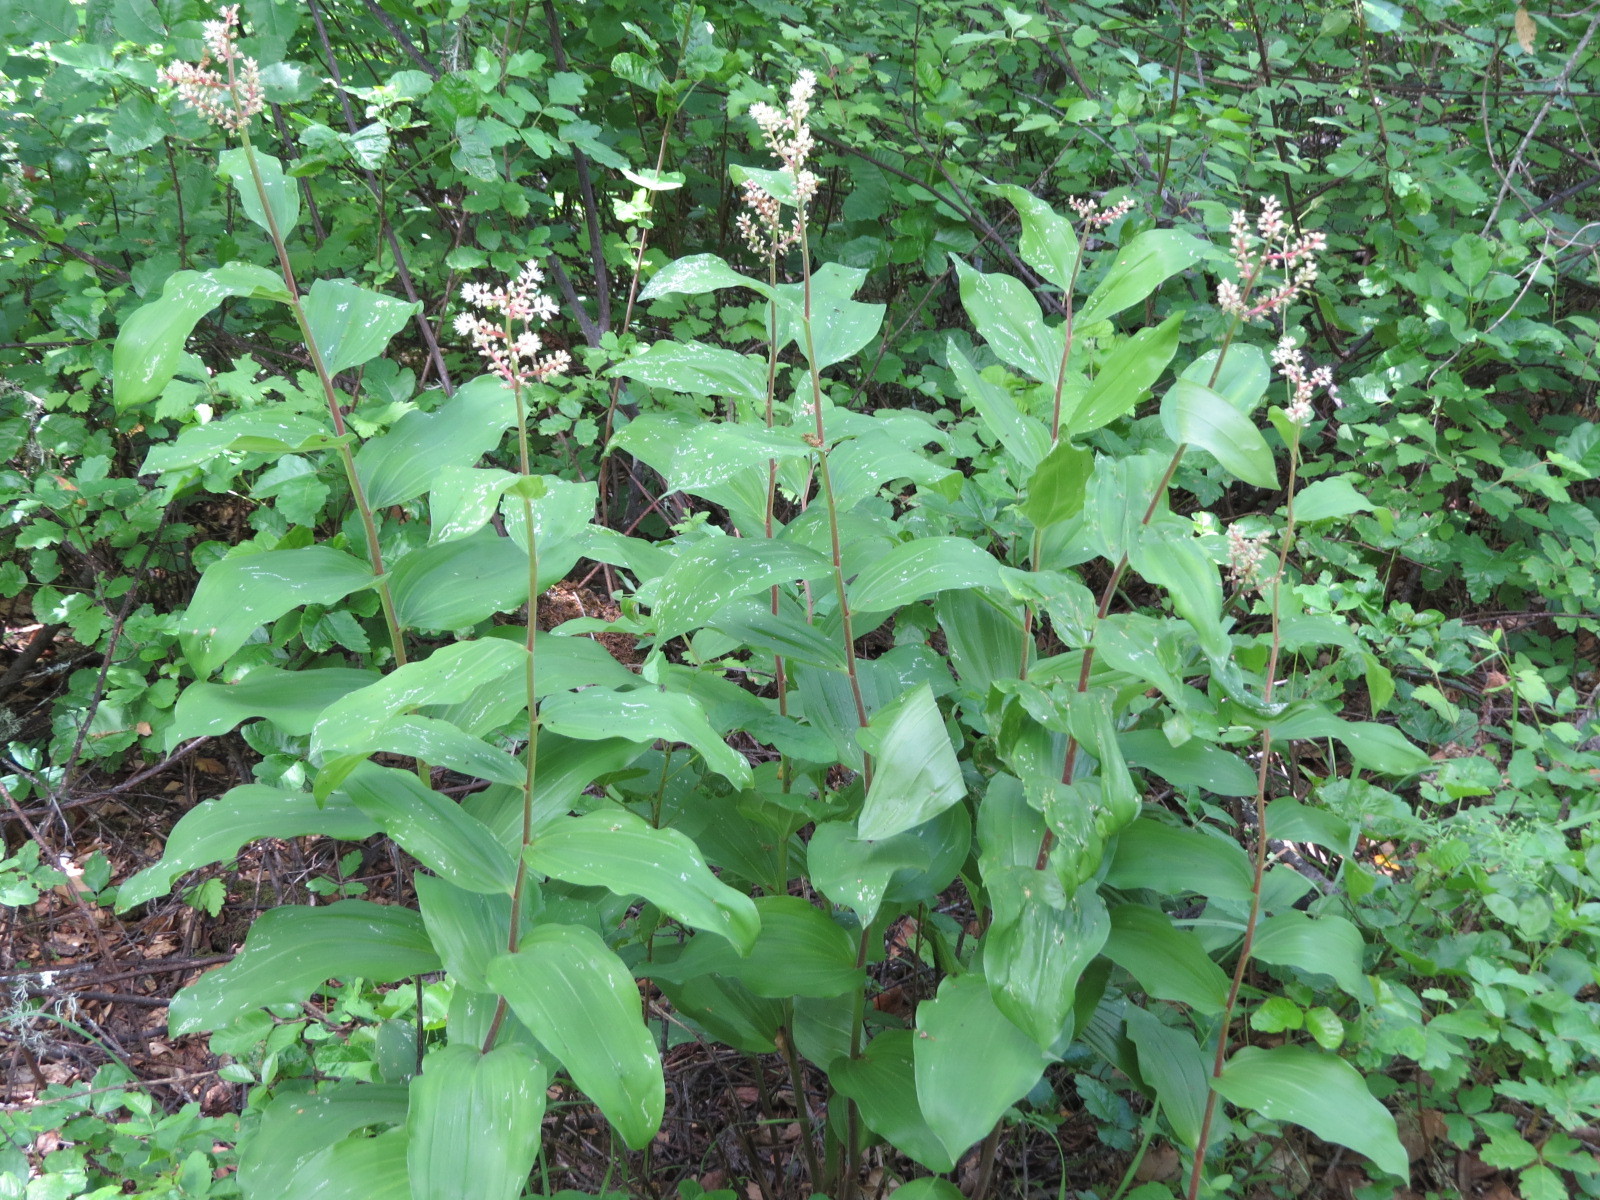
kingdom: Plantae
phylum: Tracheophyta
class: Liliopsida
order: Asparagales
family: Asparagaceae
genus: Maianthemum
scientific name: Maianthemum racemosum
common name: False spikenard
